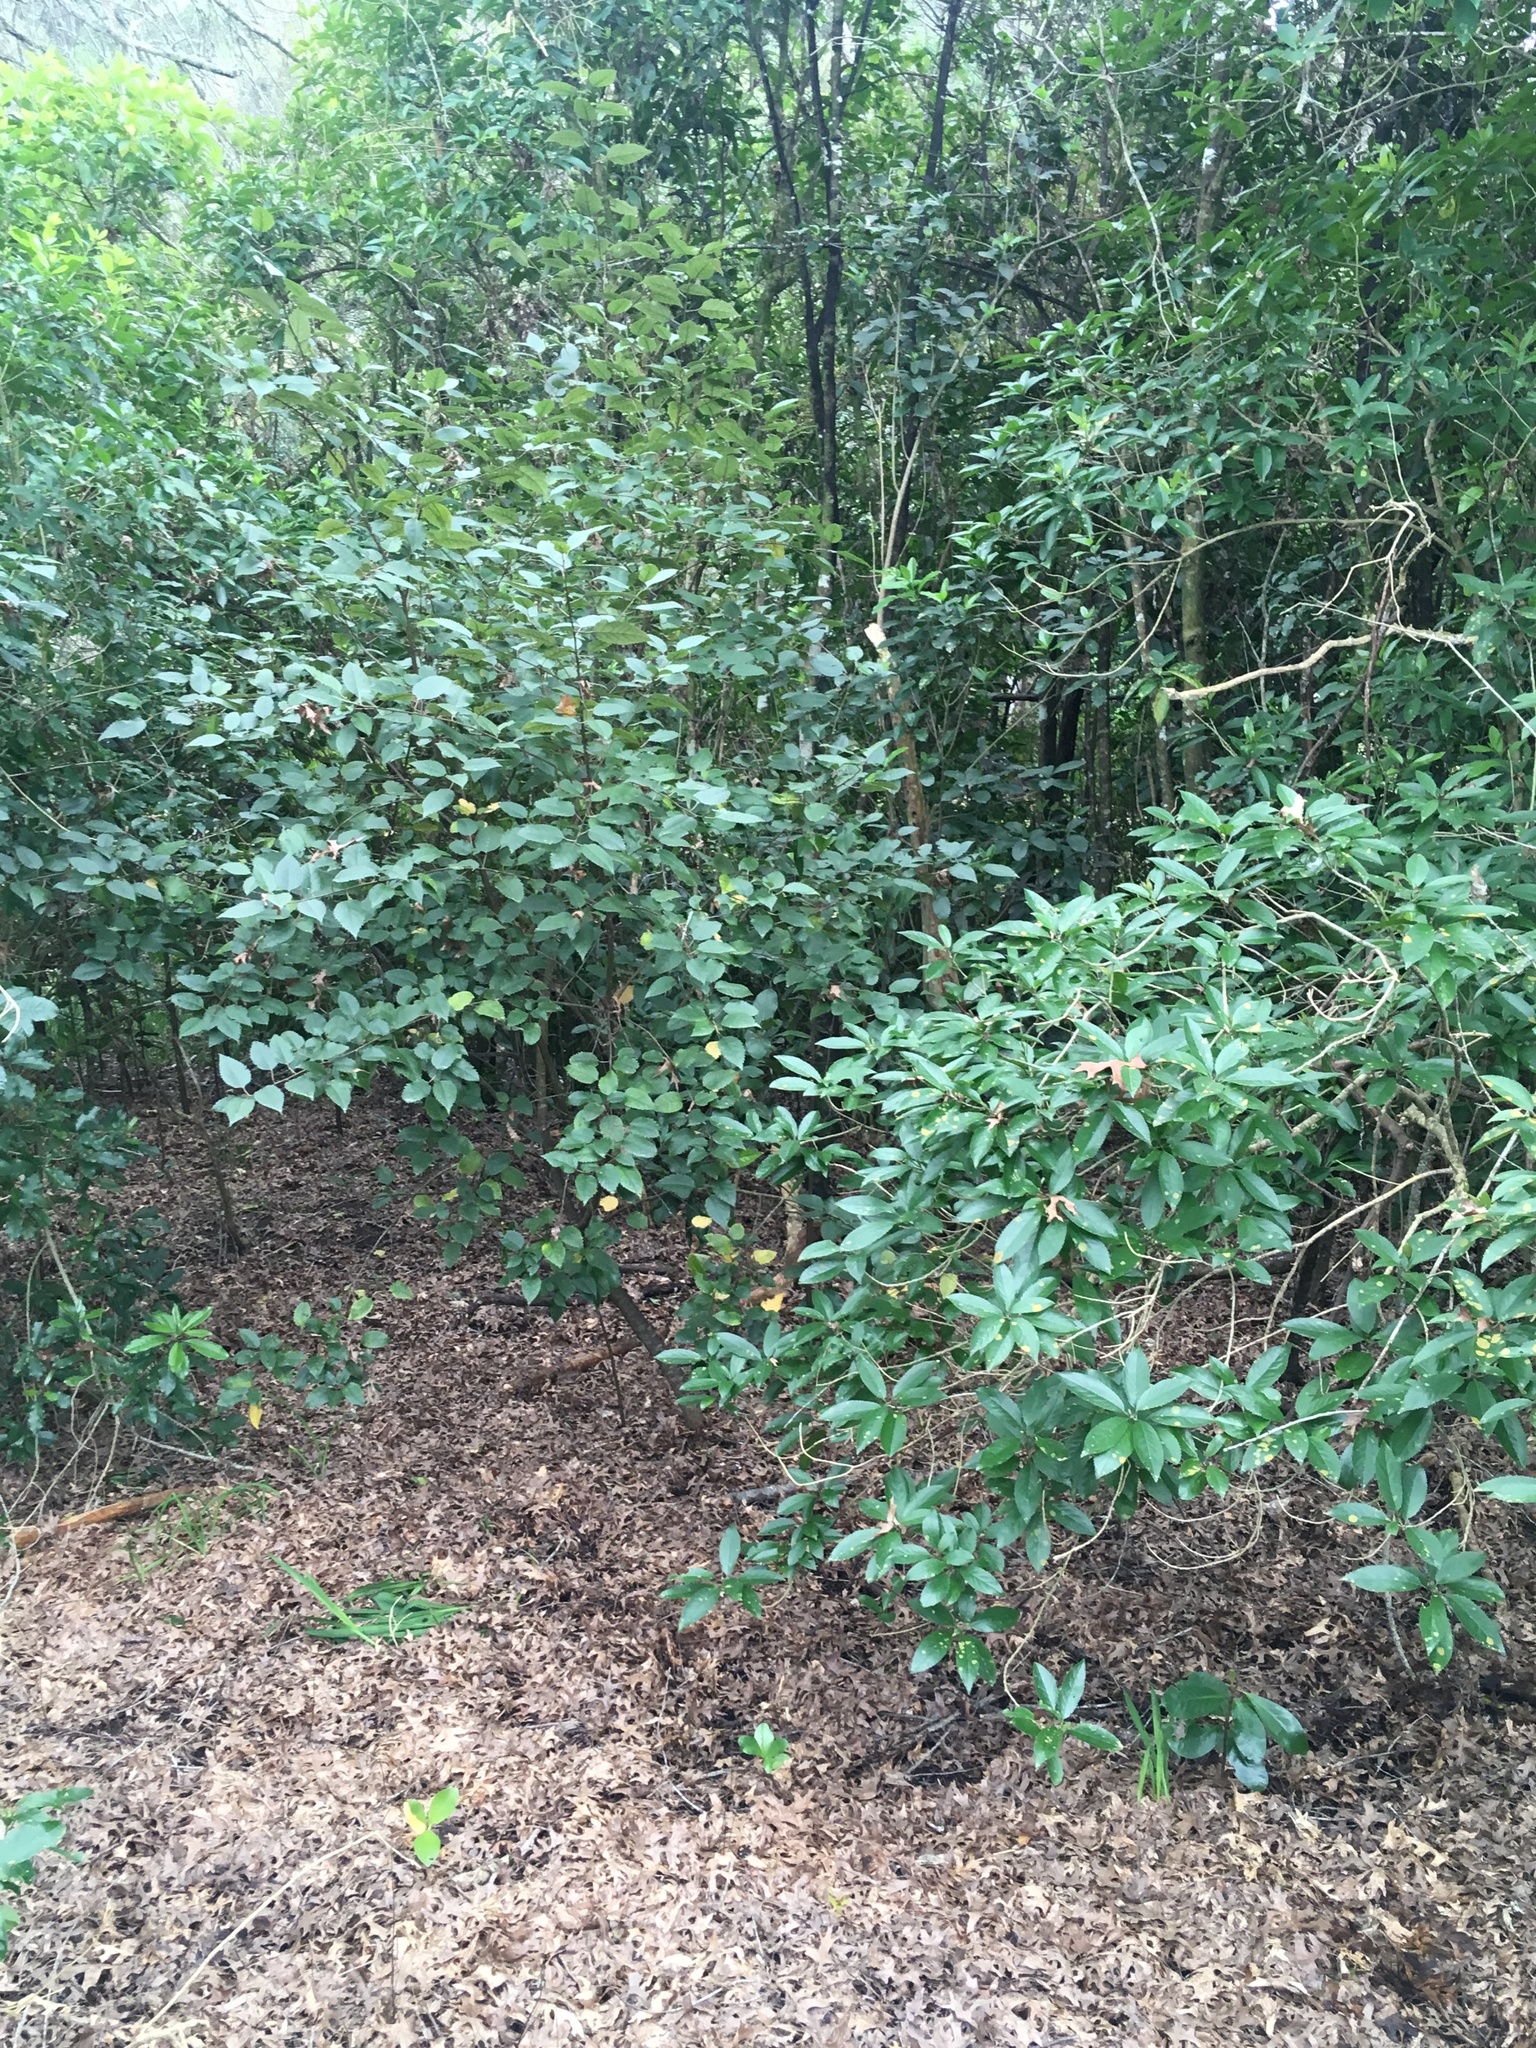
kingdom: Plantae
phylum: Tracheophyta
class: Magnoliopsida
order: Malpighiales
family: Violaceae
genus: Melicytus
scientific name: Melicytus ramiflorus
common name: Mahoe
